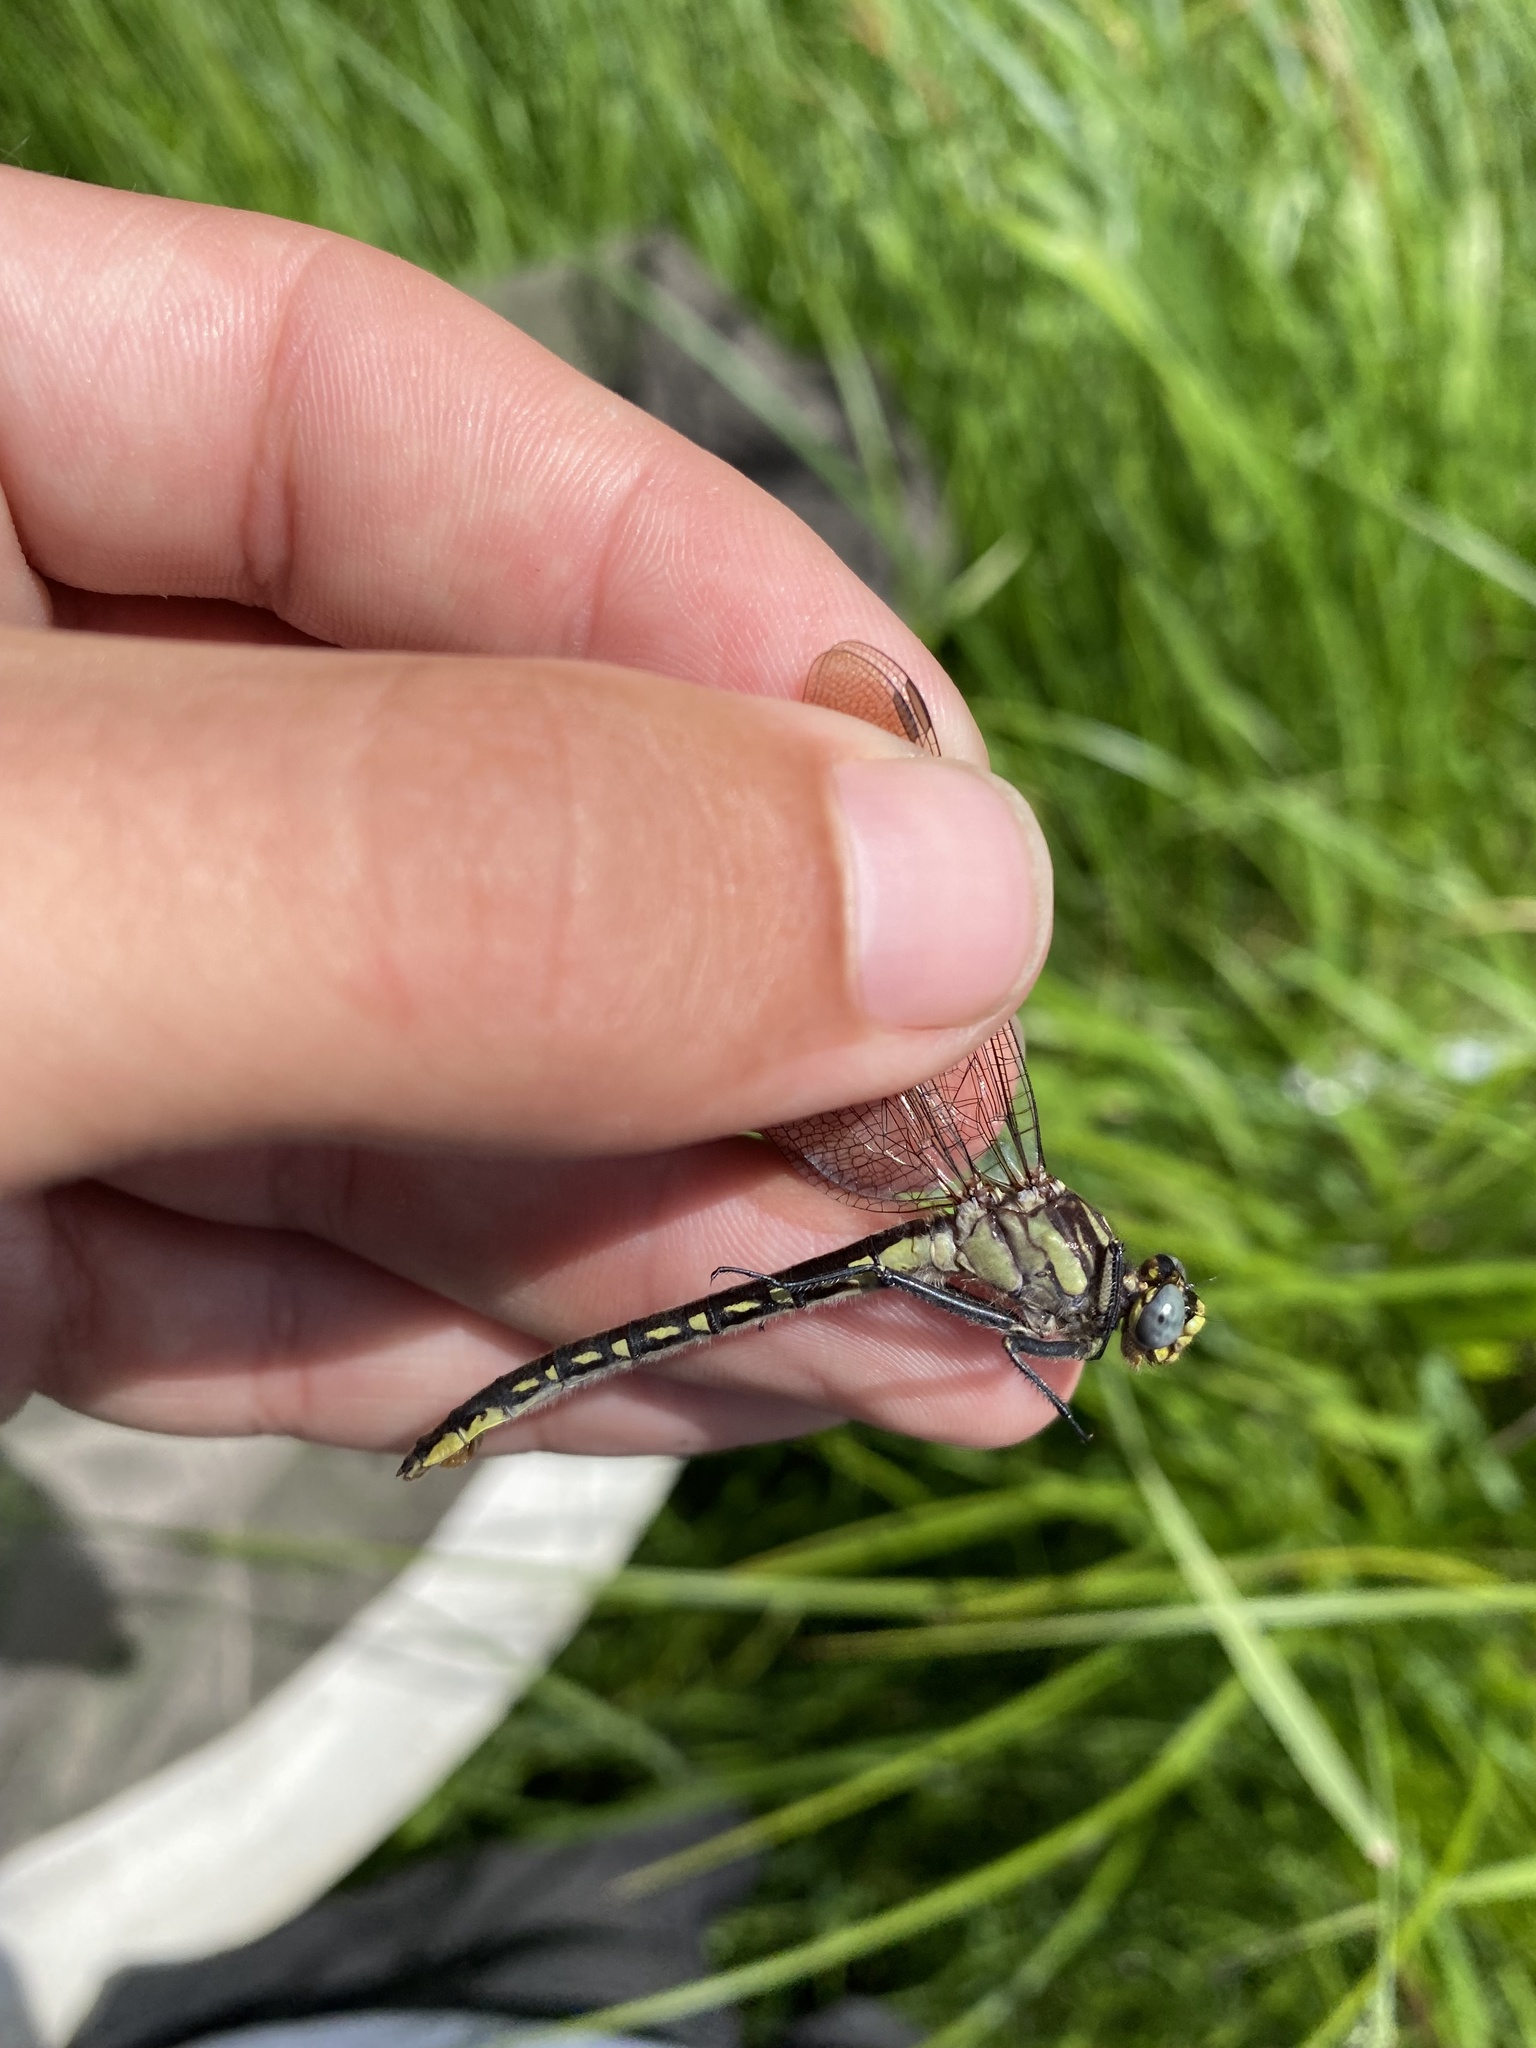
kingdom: Animalia
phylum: Arthropoda
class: Insecta
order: Odonata
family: Gomphidae
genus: Phanogomphus
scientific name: Phanogomphus borealis
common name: Beaverpond clubtail
